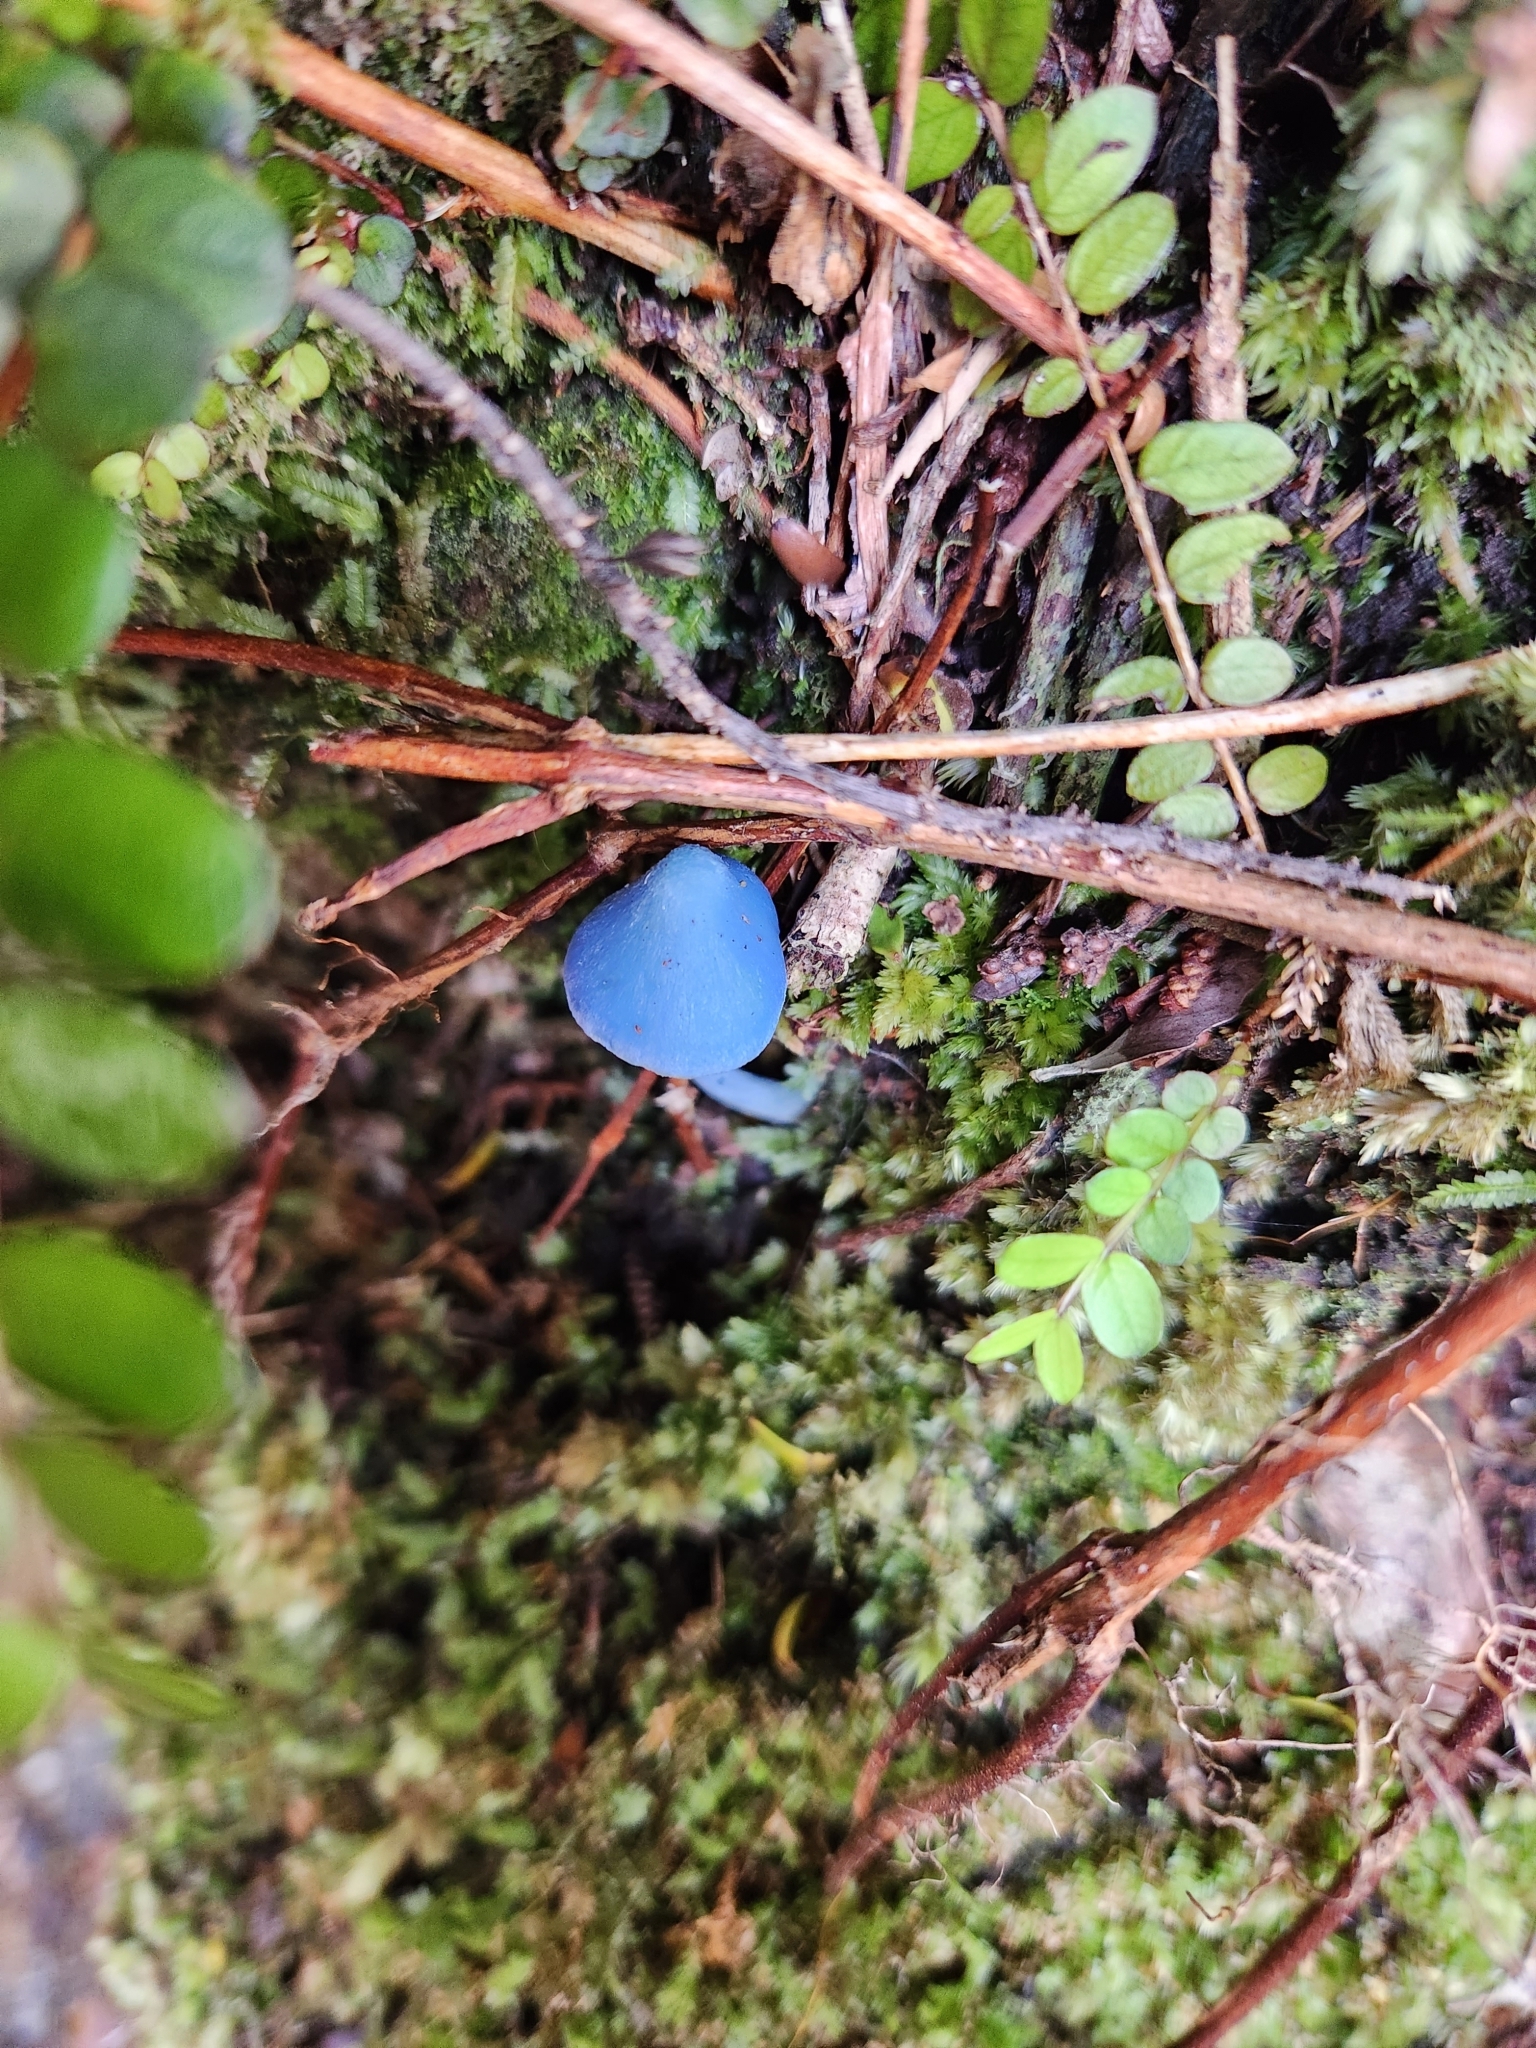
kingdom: Fungi
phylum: Basidiomycota
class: Agaricomycetes
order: Agaricales
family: Entolomataceae
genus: Entoloma
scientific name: Entoloma hochstetteri
